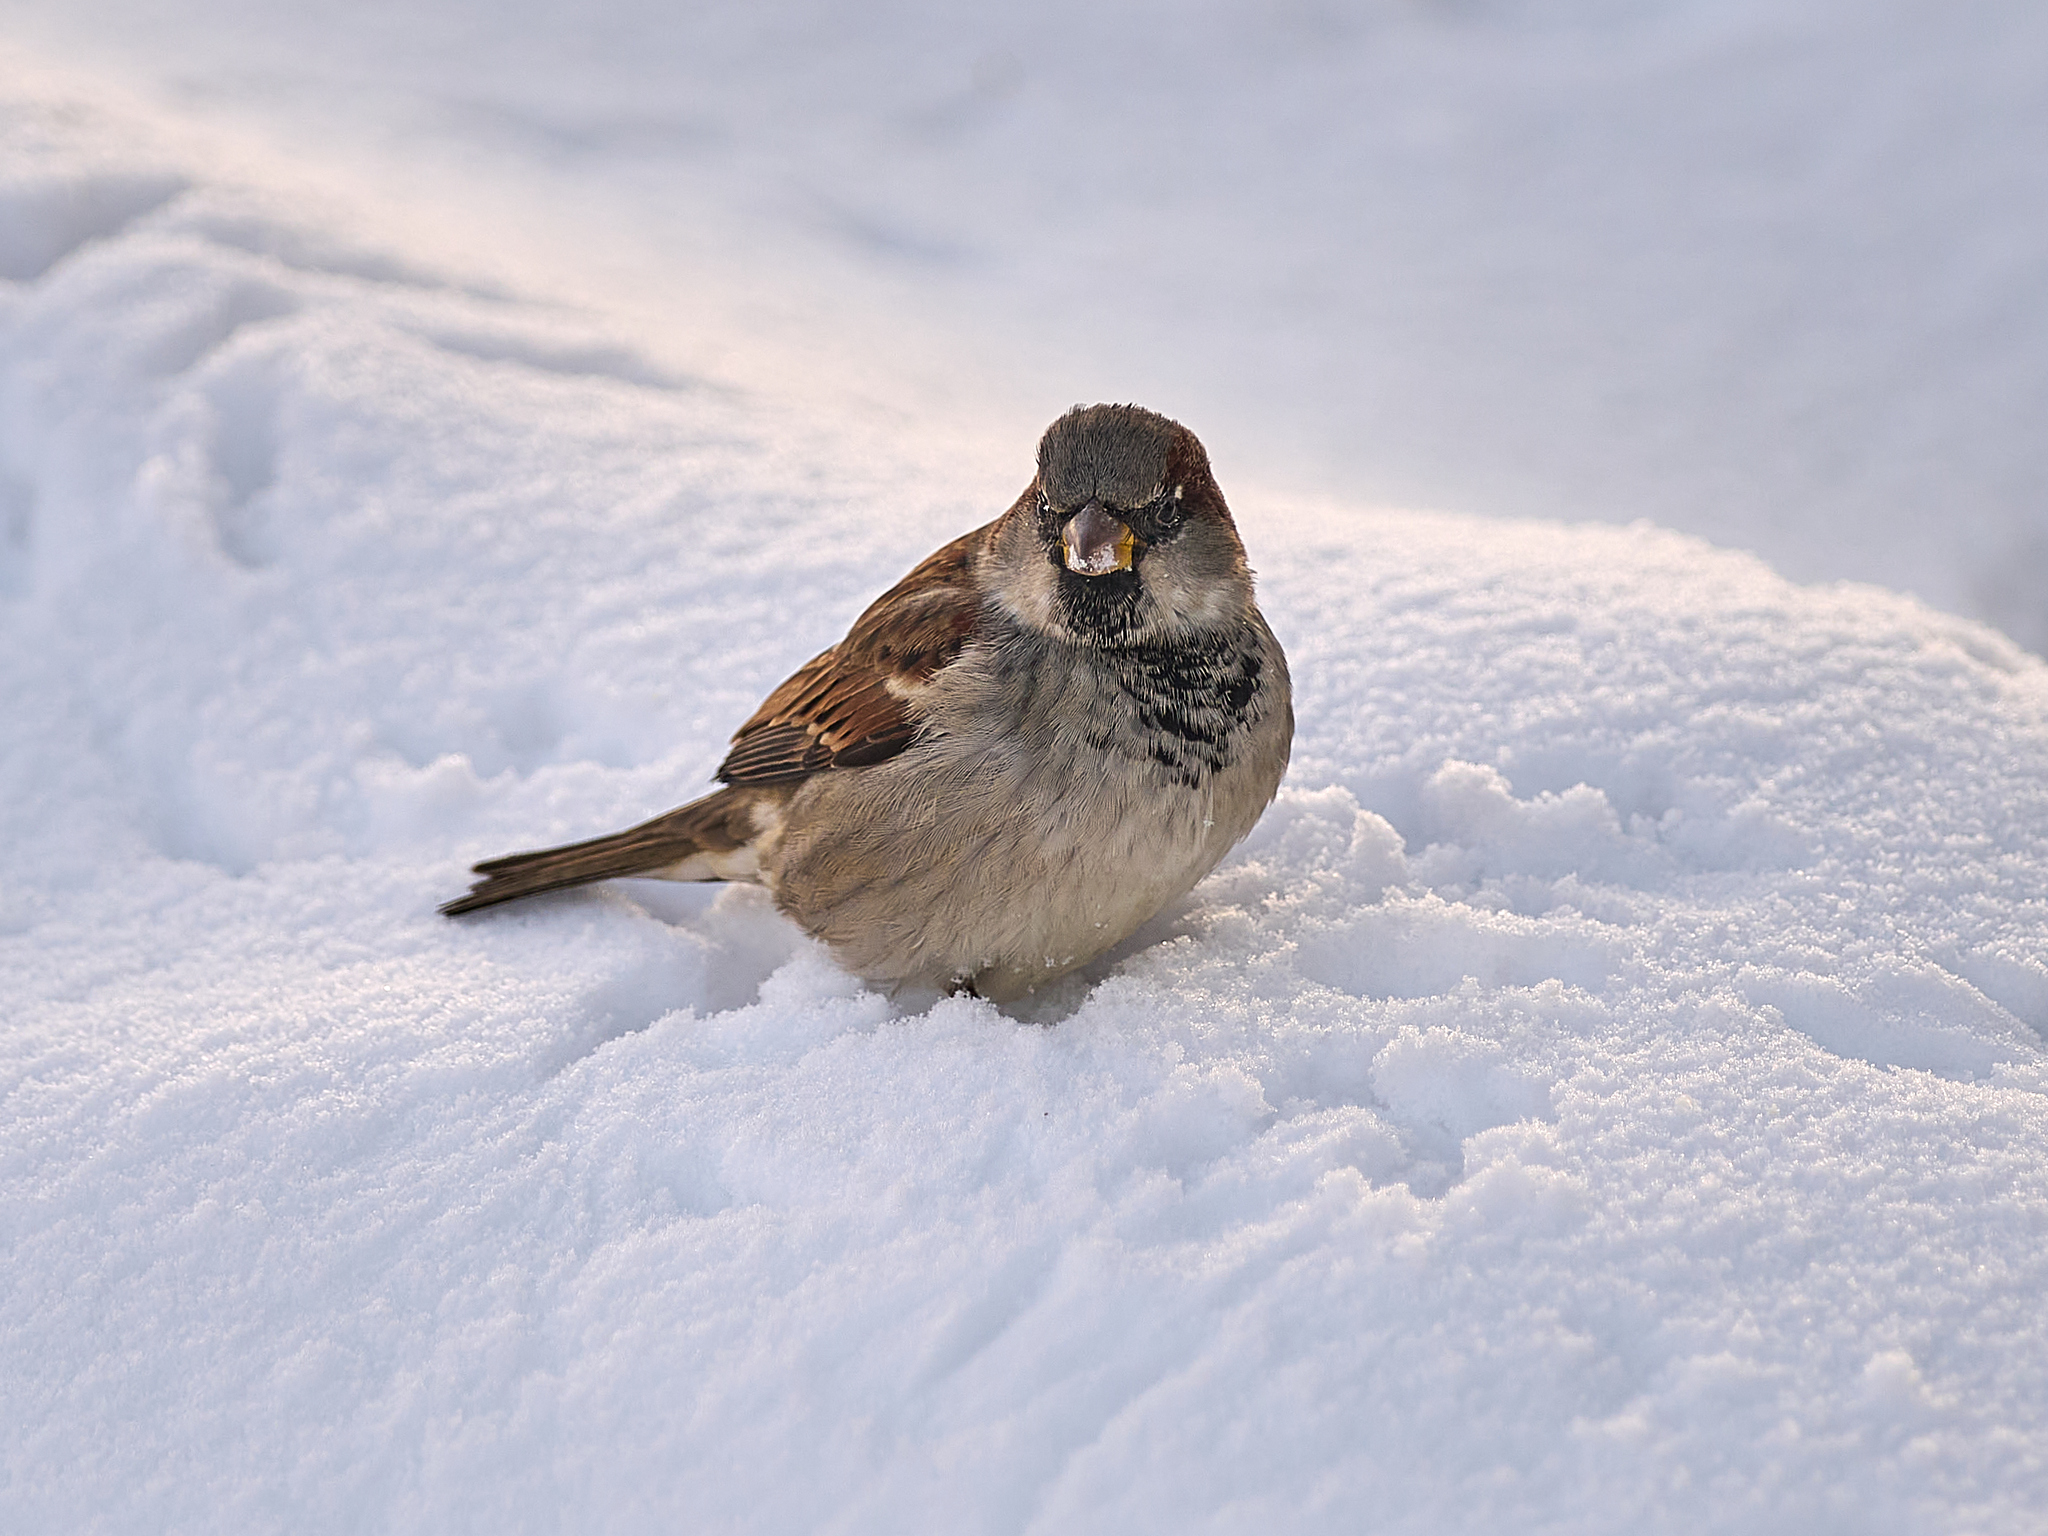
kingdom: Animalia
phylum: Chordata
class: Aves
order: Passeriformes
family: Passeridae
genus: Passer
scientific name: Passer domesticus
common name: House sparrow
